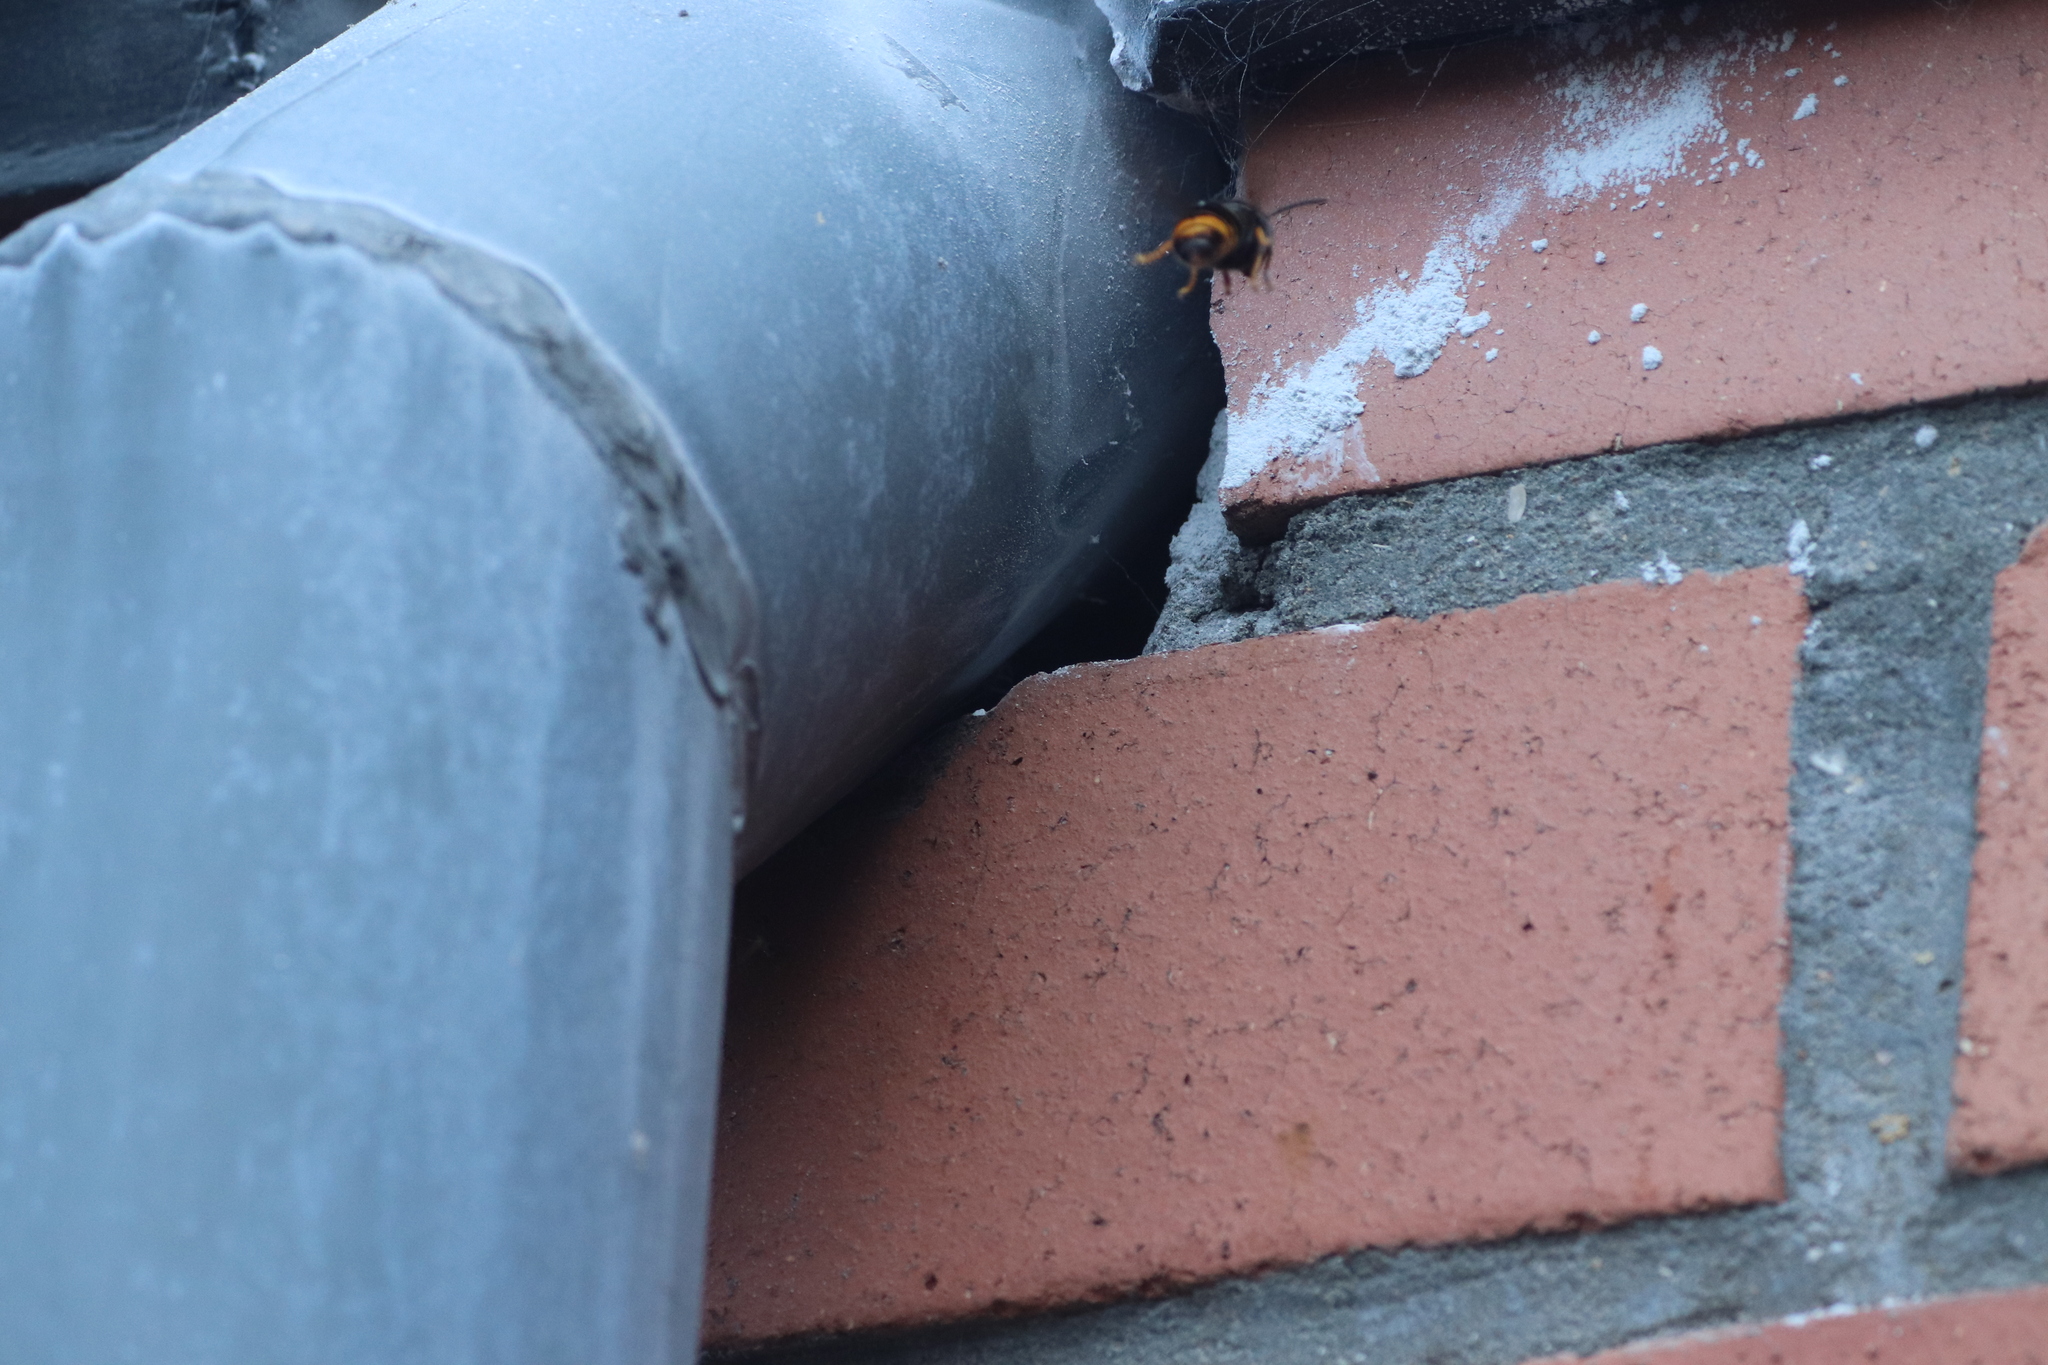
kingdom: Animalia
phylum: Arthropoda
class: Insecta
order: Hymenoptera
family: Vespidae
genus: Vespa
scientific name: Vespa velutina
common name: Asian hornet
